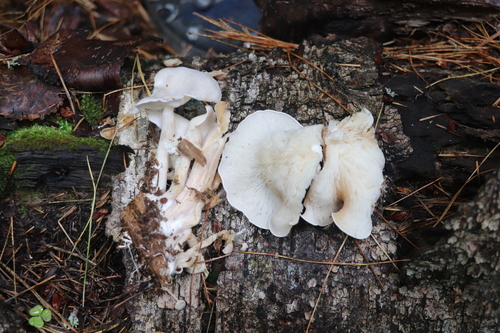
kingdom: Fungi
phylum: Basidiomycota
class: Agaricomycetes
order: Agaricales
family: Lyophyllaceae
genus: Ossicaulis
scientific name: Ossicaulis lignatilis
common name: Mealy oyster
